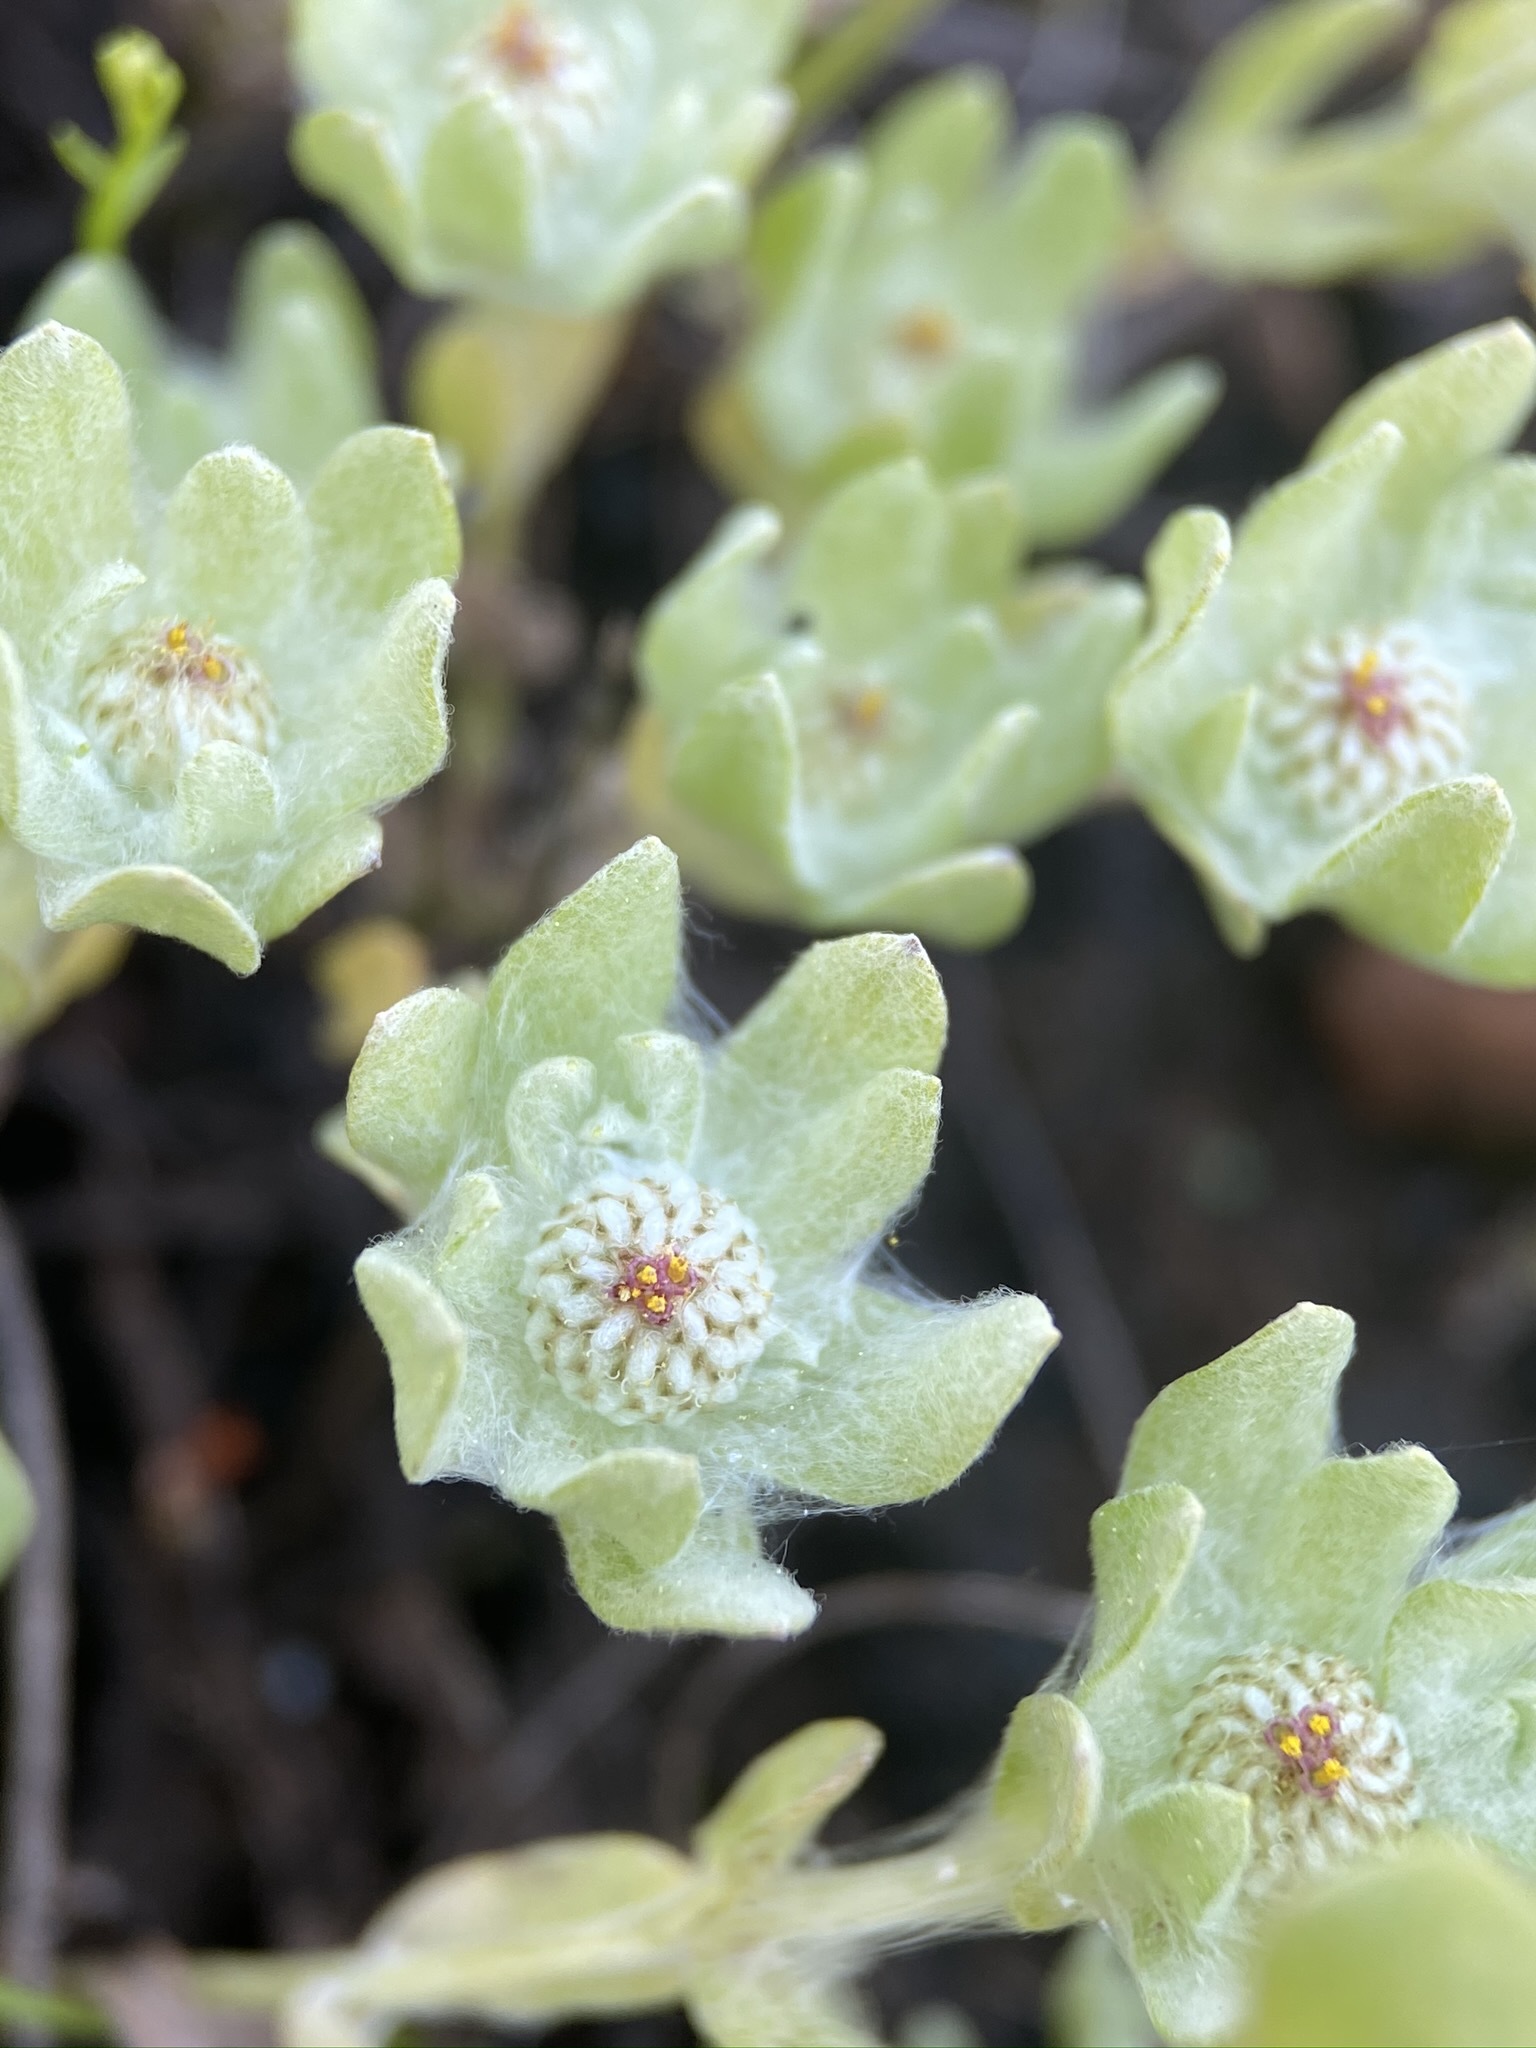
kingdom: Plantae
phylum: Tracheophyta
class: Magnoliopsida
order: Asterales
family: Asteraceae
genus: Psilocarphus
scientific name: Psilocarphus brevissimus
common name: Dwarf woollyheads
